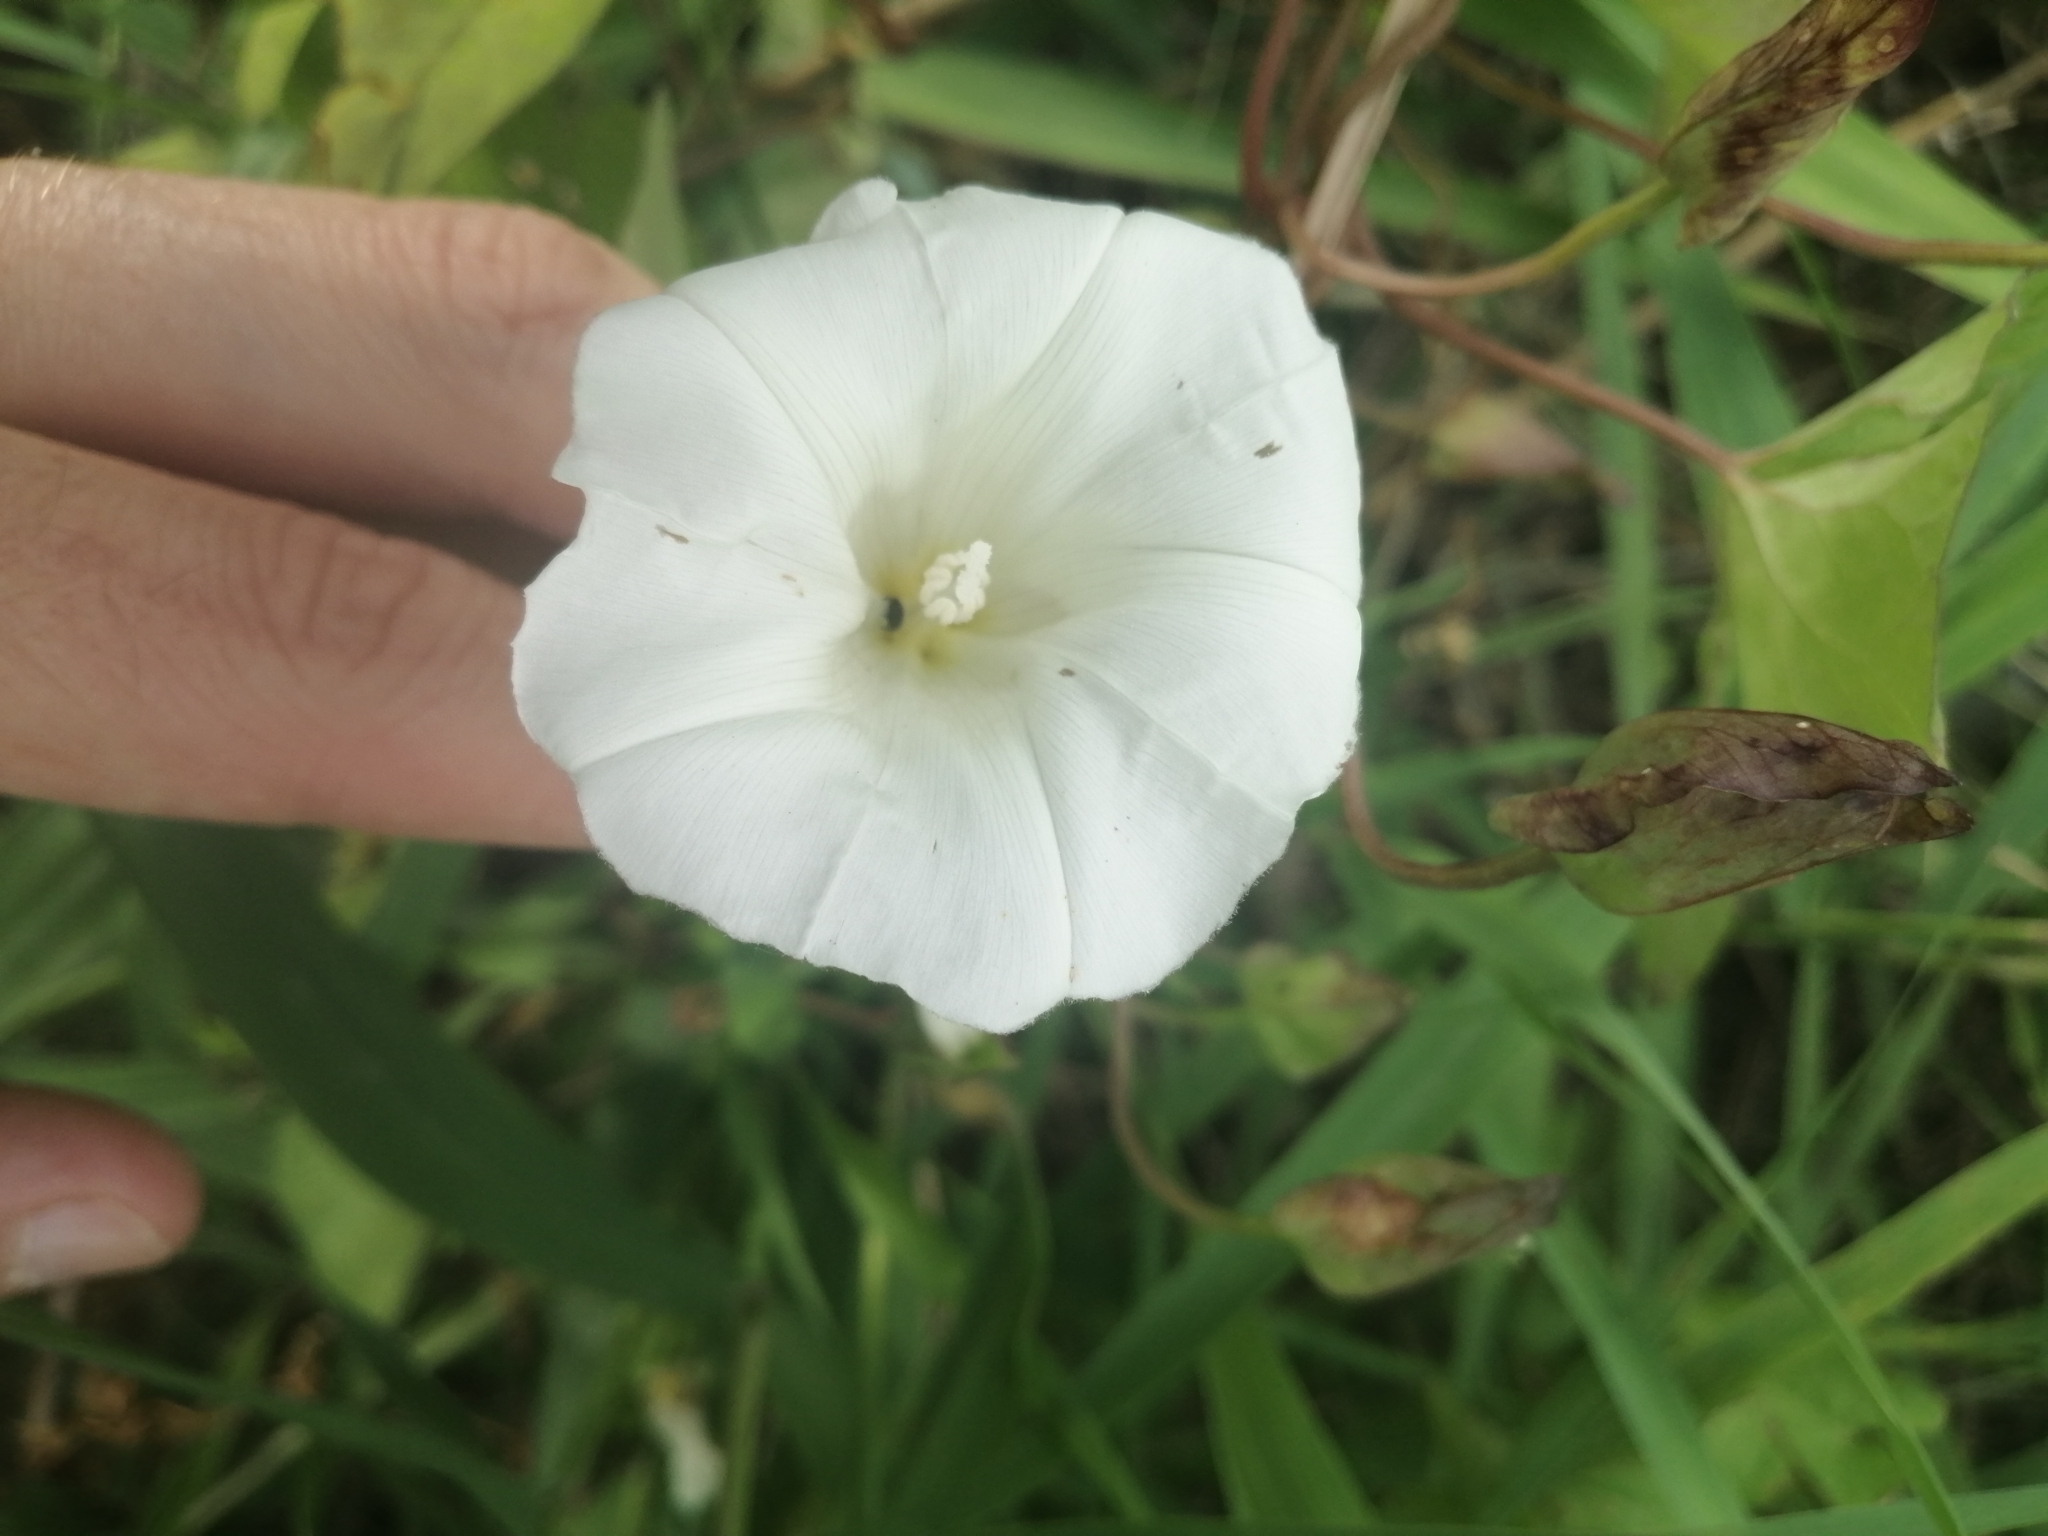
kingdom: Plantae
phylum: Tracheophyta
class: Magnoliopsida
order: Solanales
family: Convolvulaceae
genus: Calystegia
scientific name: Calystegia sepium
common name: Hedge bindweed
